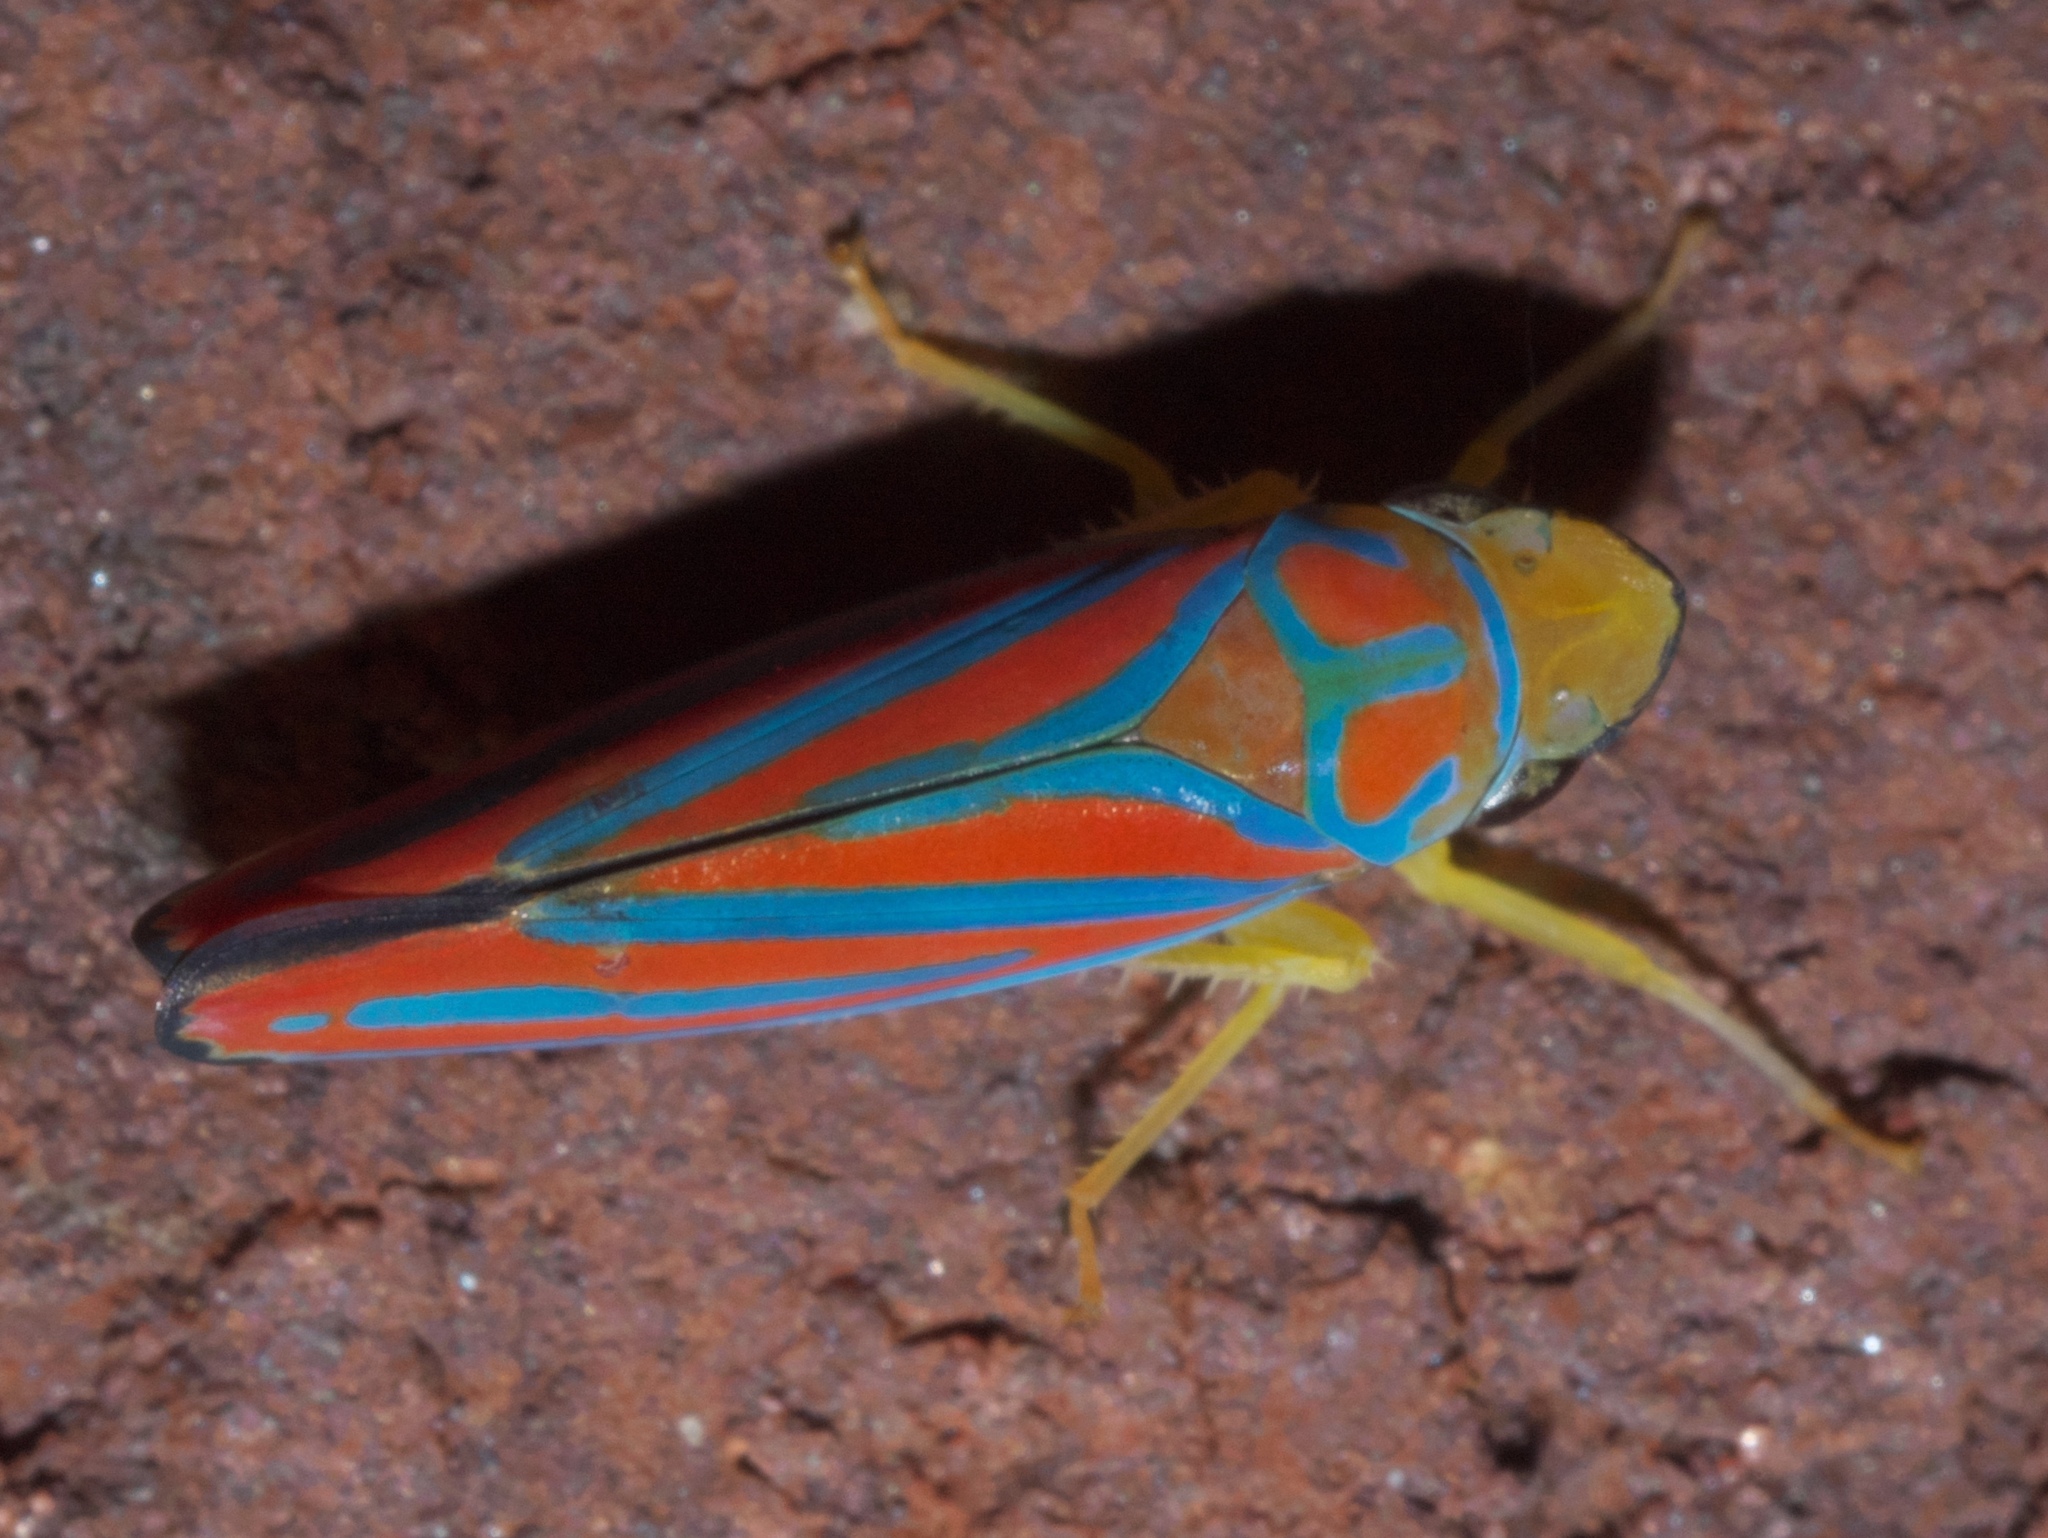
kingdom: Animalia
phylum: Arthropoda
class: Insecta
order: Hemiptera
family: Cicadellidae
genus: Graphocephala
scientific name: Graphocephala coccinea
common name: Candy-striped leafhopper
